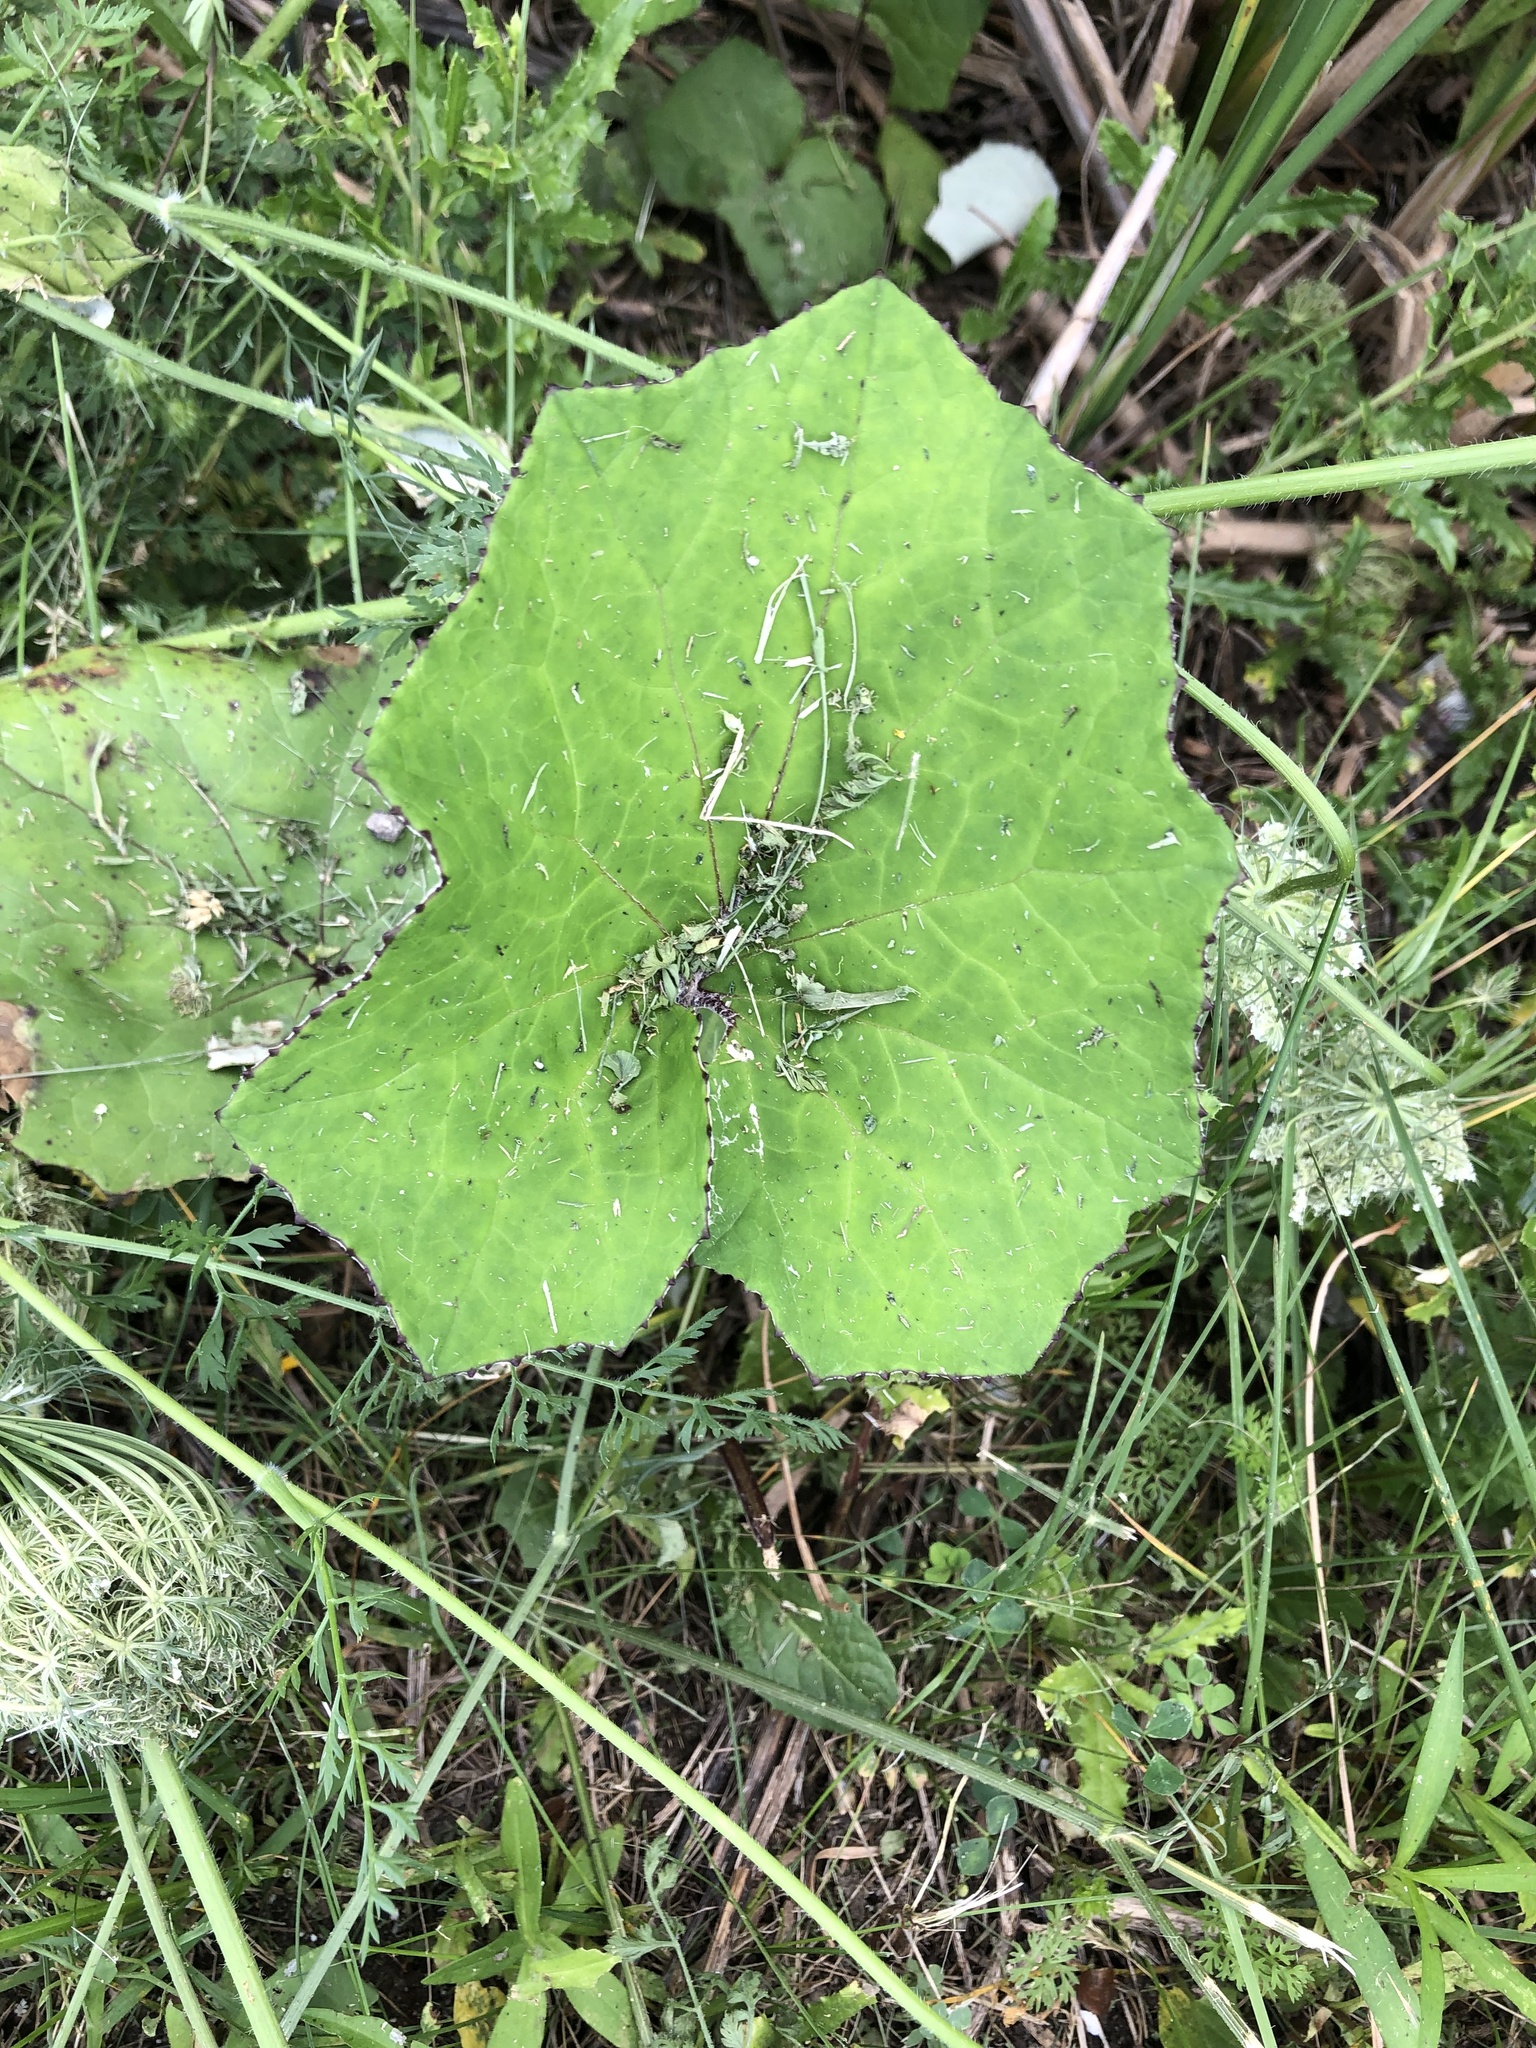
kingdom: Plantae
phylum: Tracheophyta
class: Magnoliopsida
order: Asterales
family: Asteraceae
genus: Tussilago
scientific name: Tussilago farfara
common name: Coltsfoot
